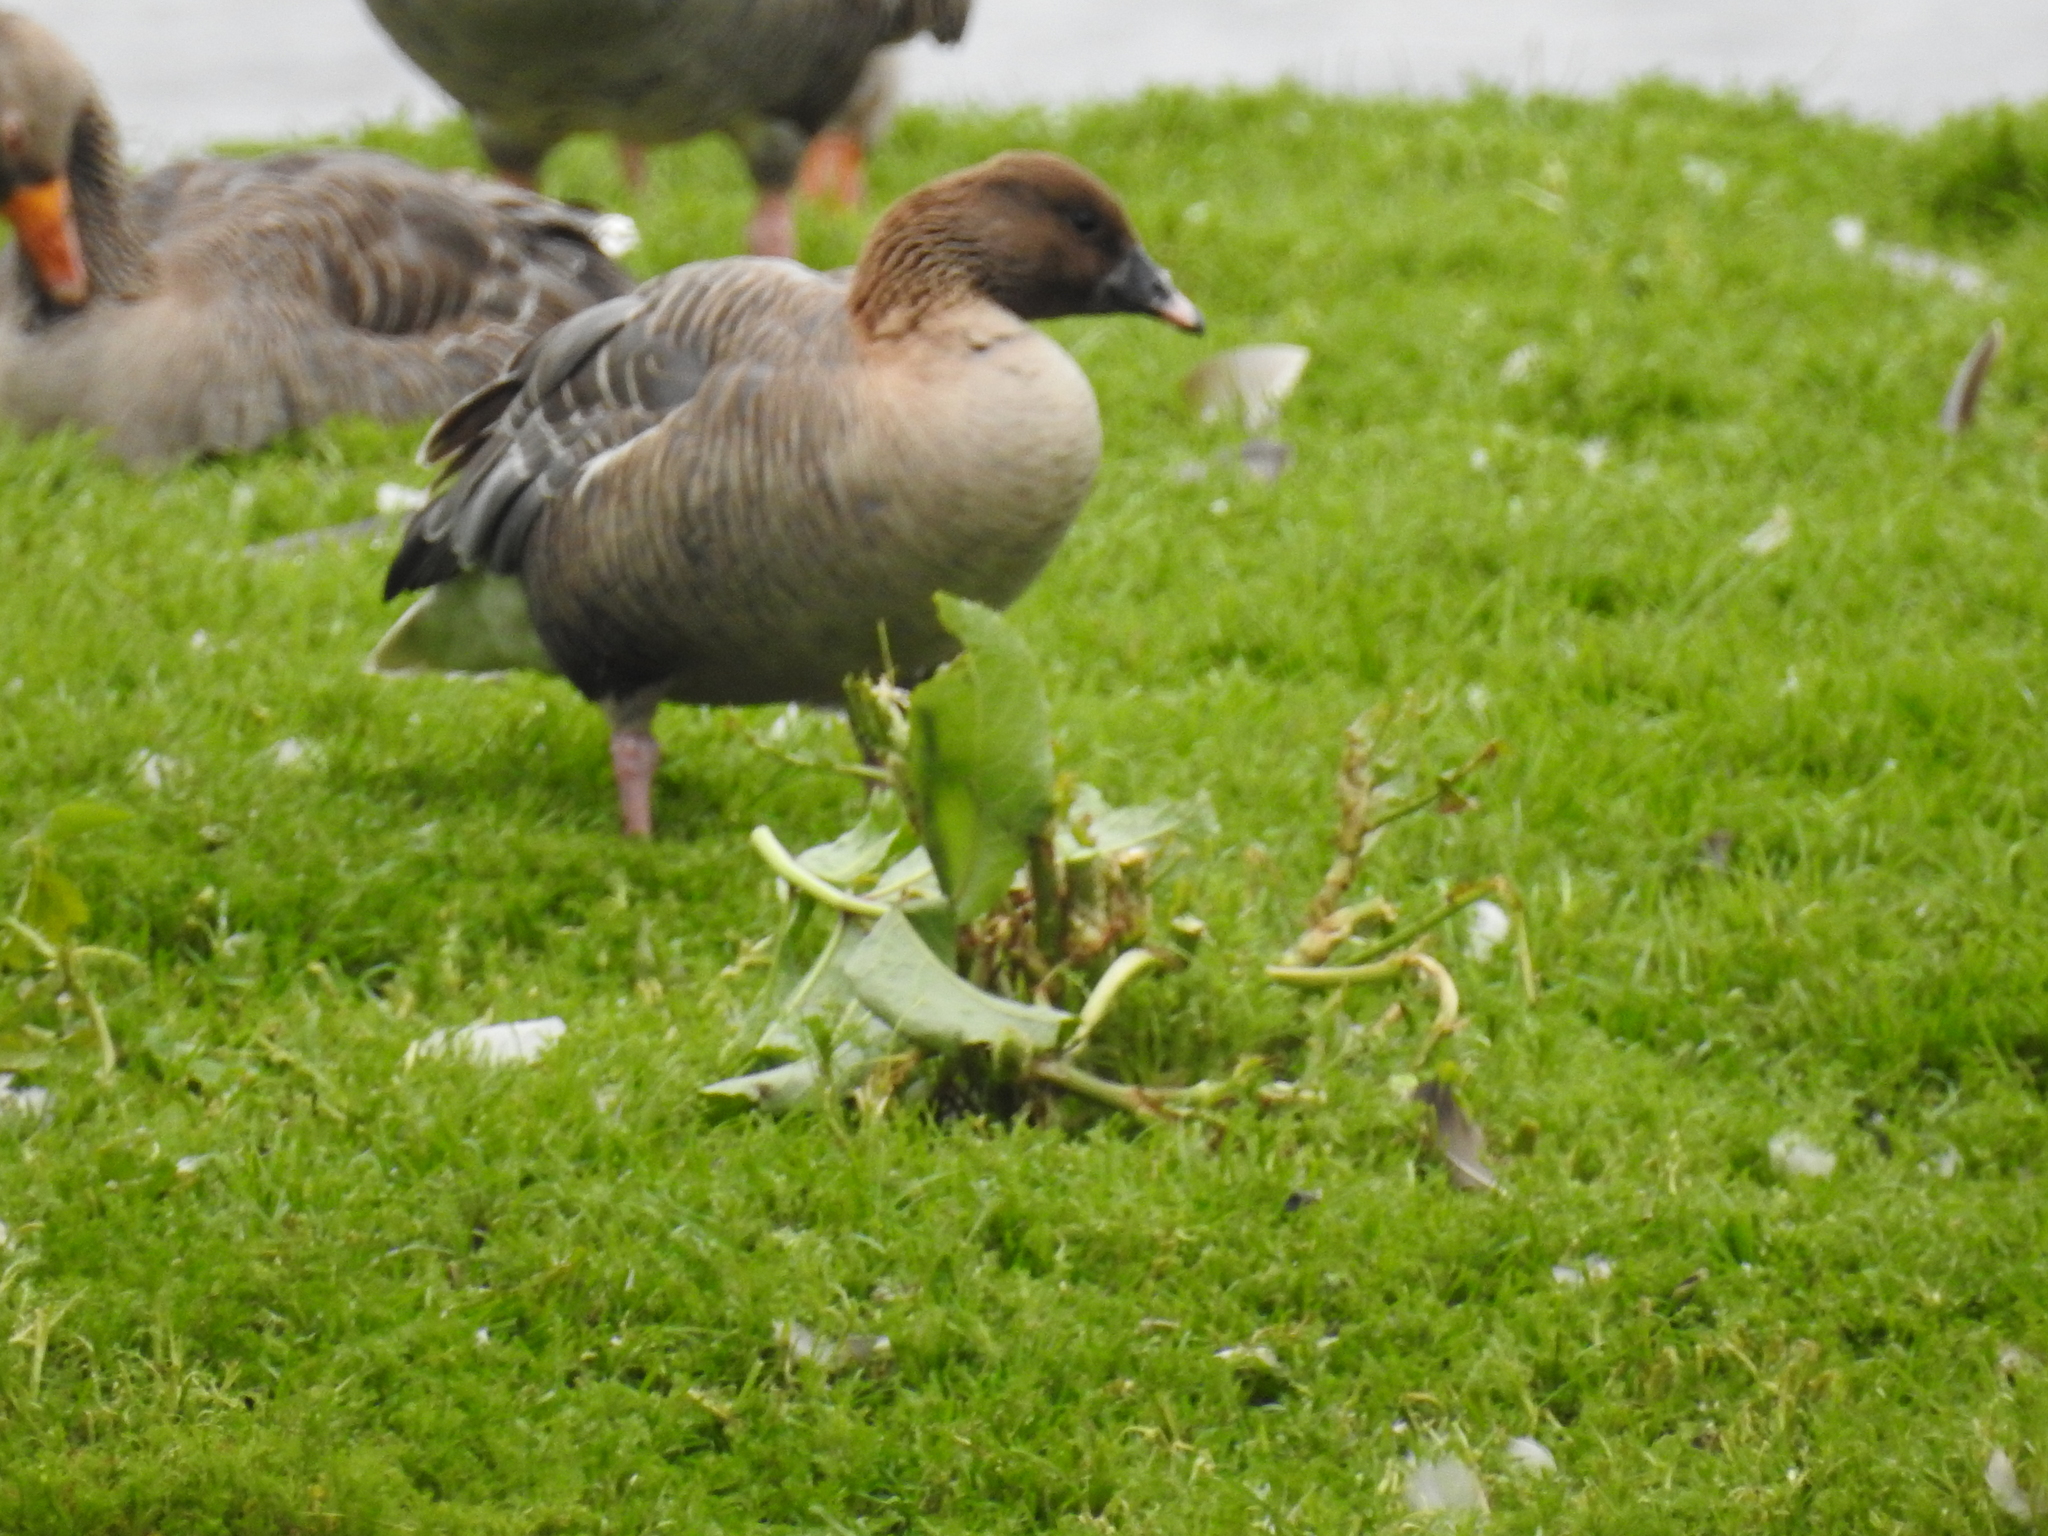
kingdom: Animalia
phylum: Chordata
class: Aves
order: Anseriformes
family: Anatidae
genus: Anser
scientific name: Anser anser
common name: Greylag goose
